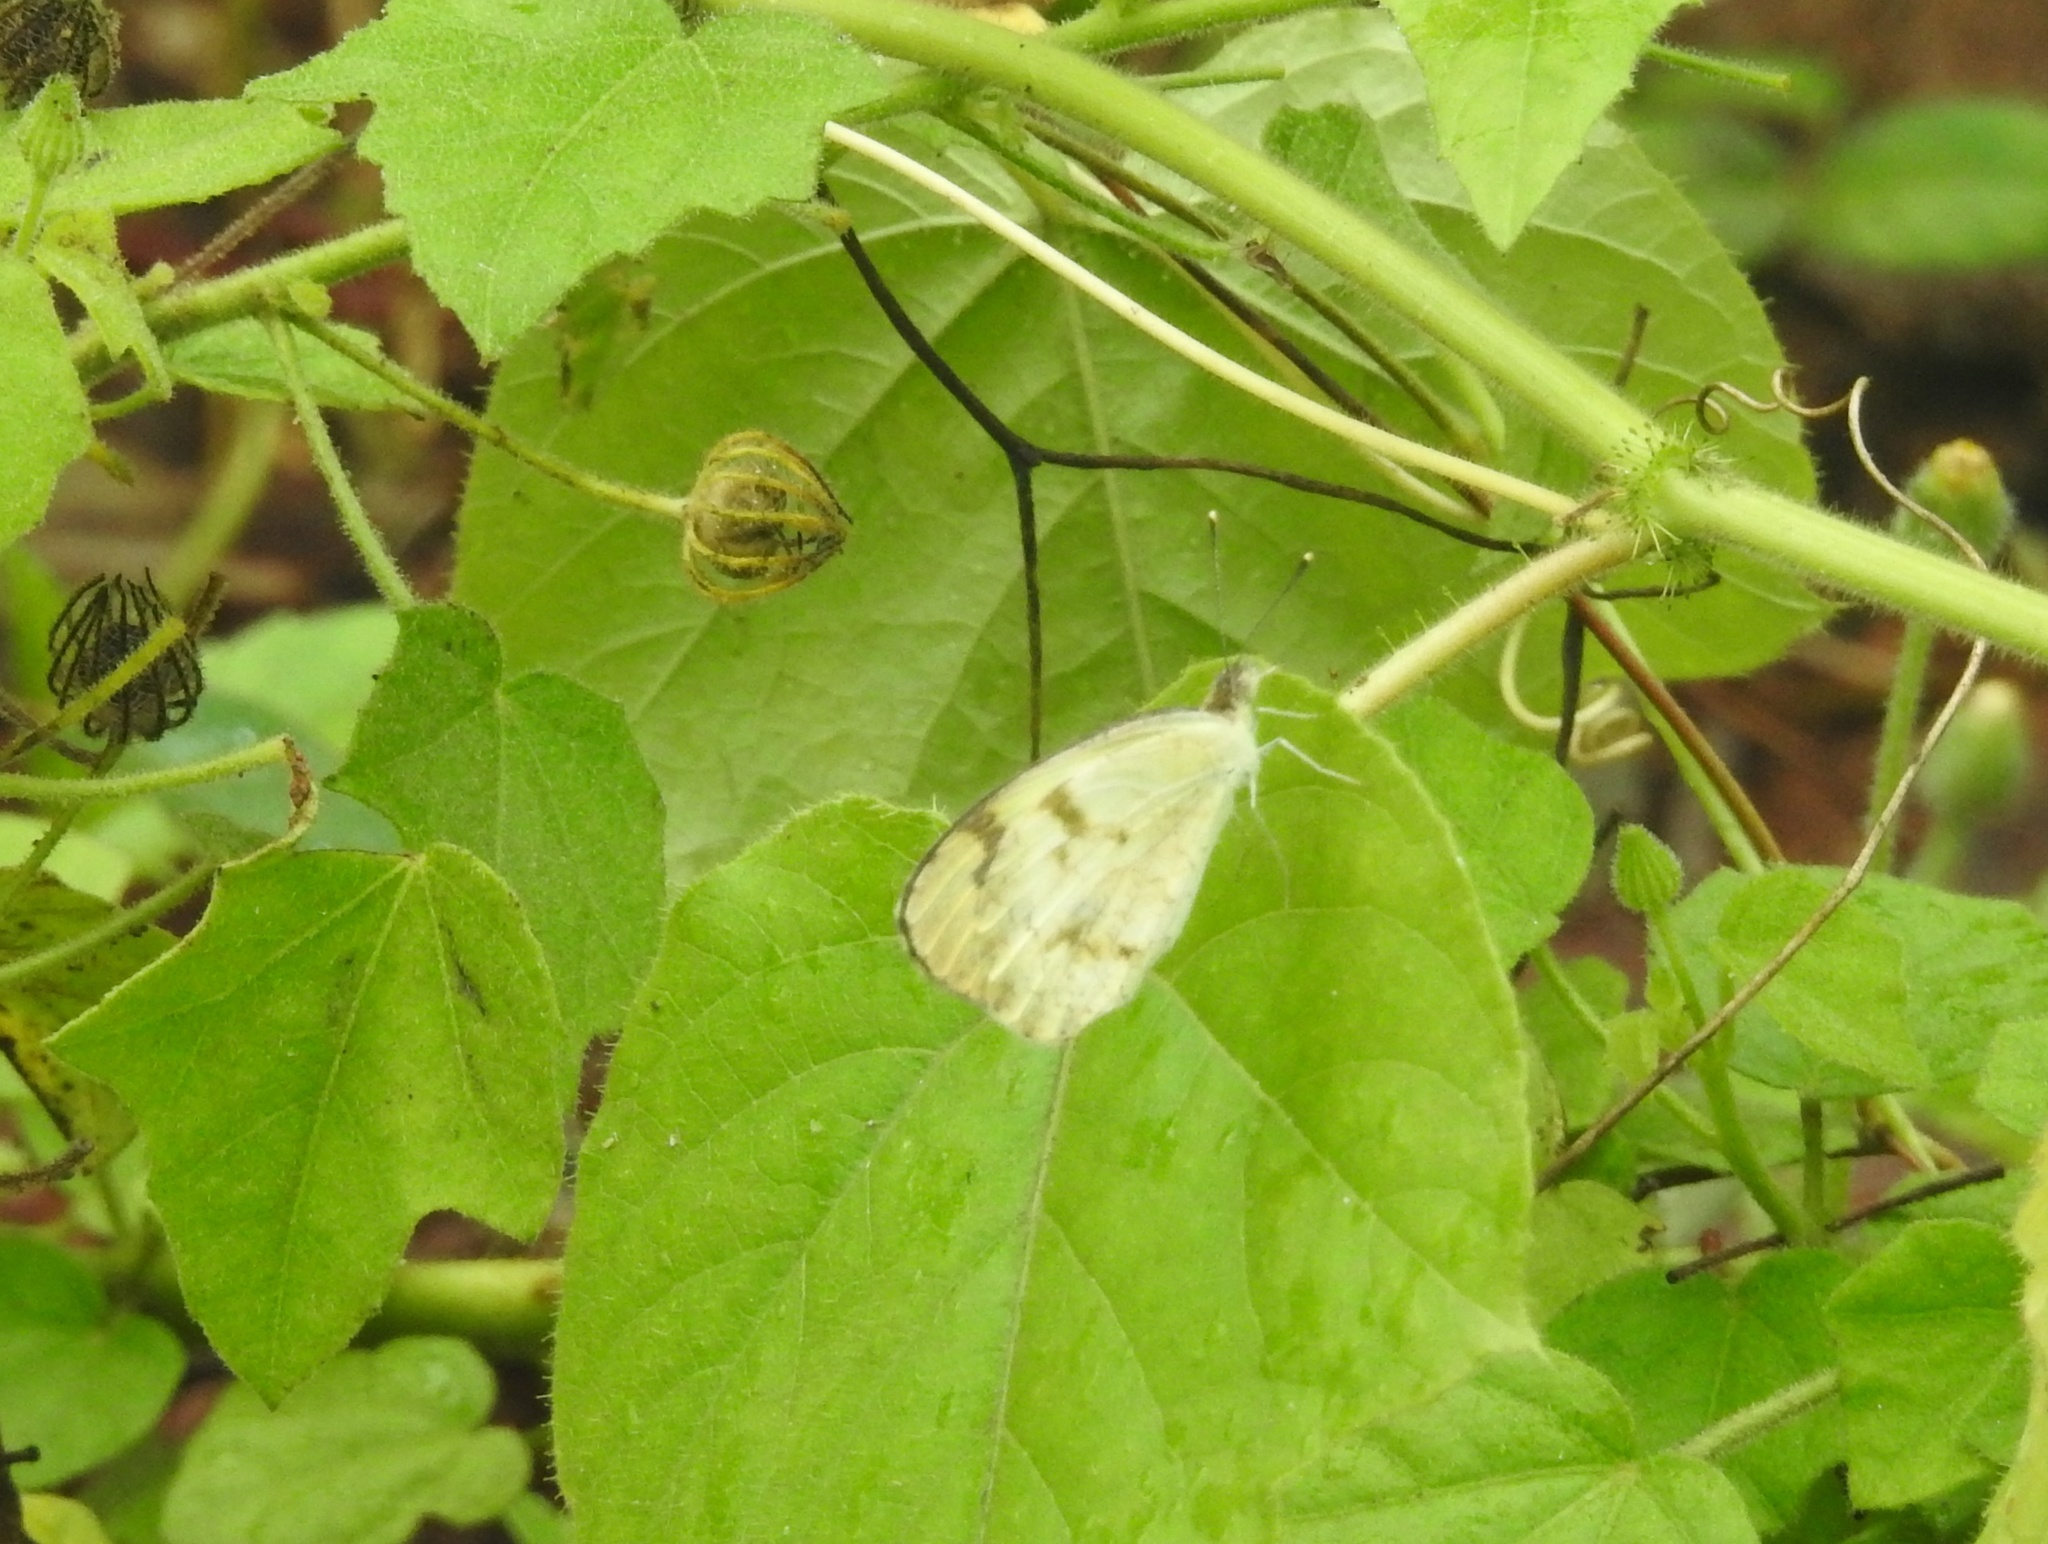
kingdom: Animalia
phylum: Arthropoda
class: Insecta
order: Lepidoptera
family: Pieridae
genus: Colotis
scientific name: Colotis aurora
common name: Plain orange-tip
